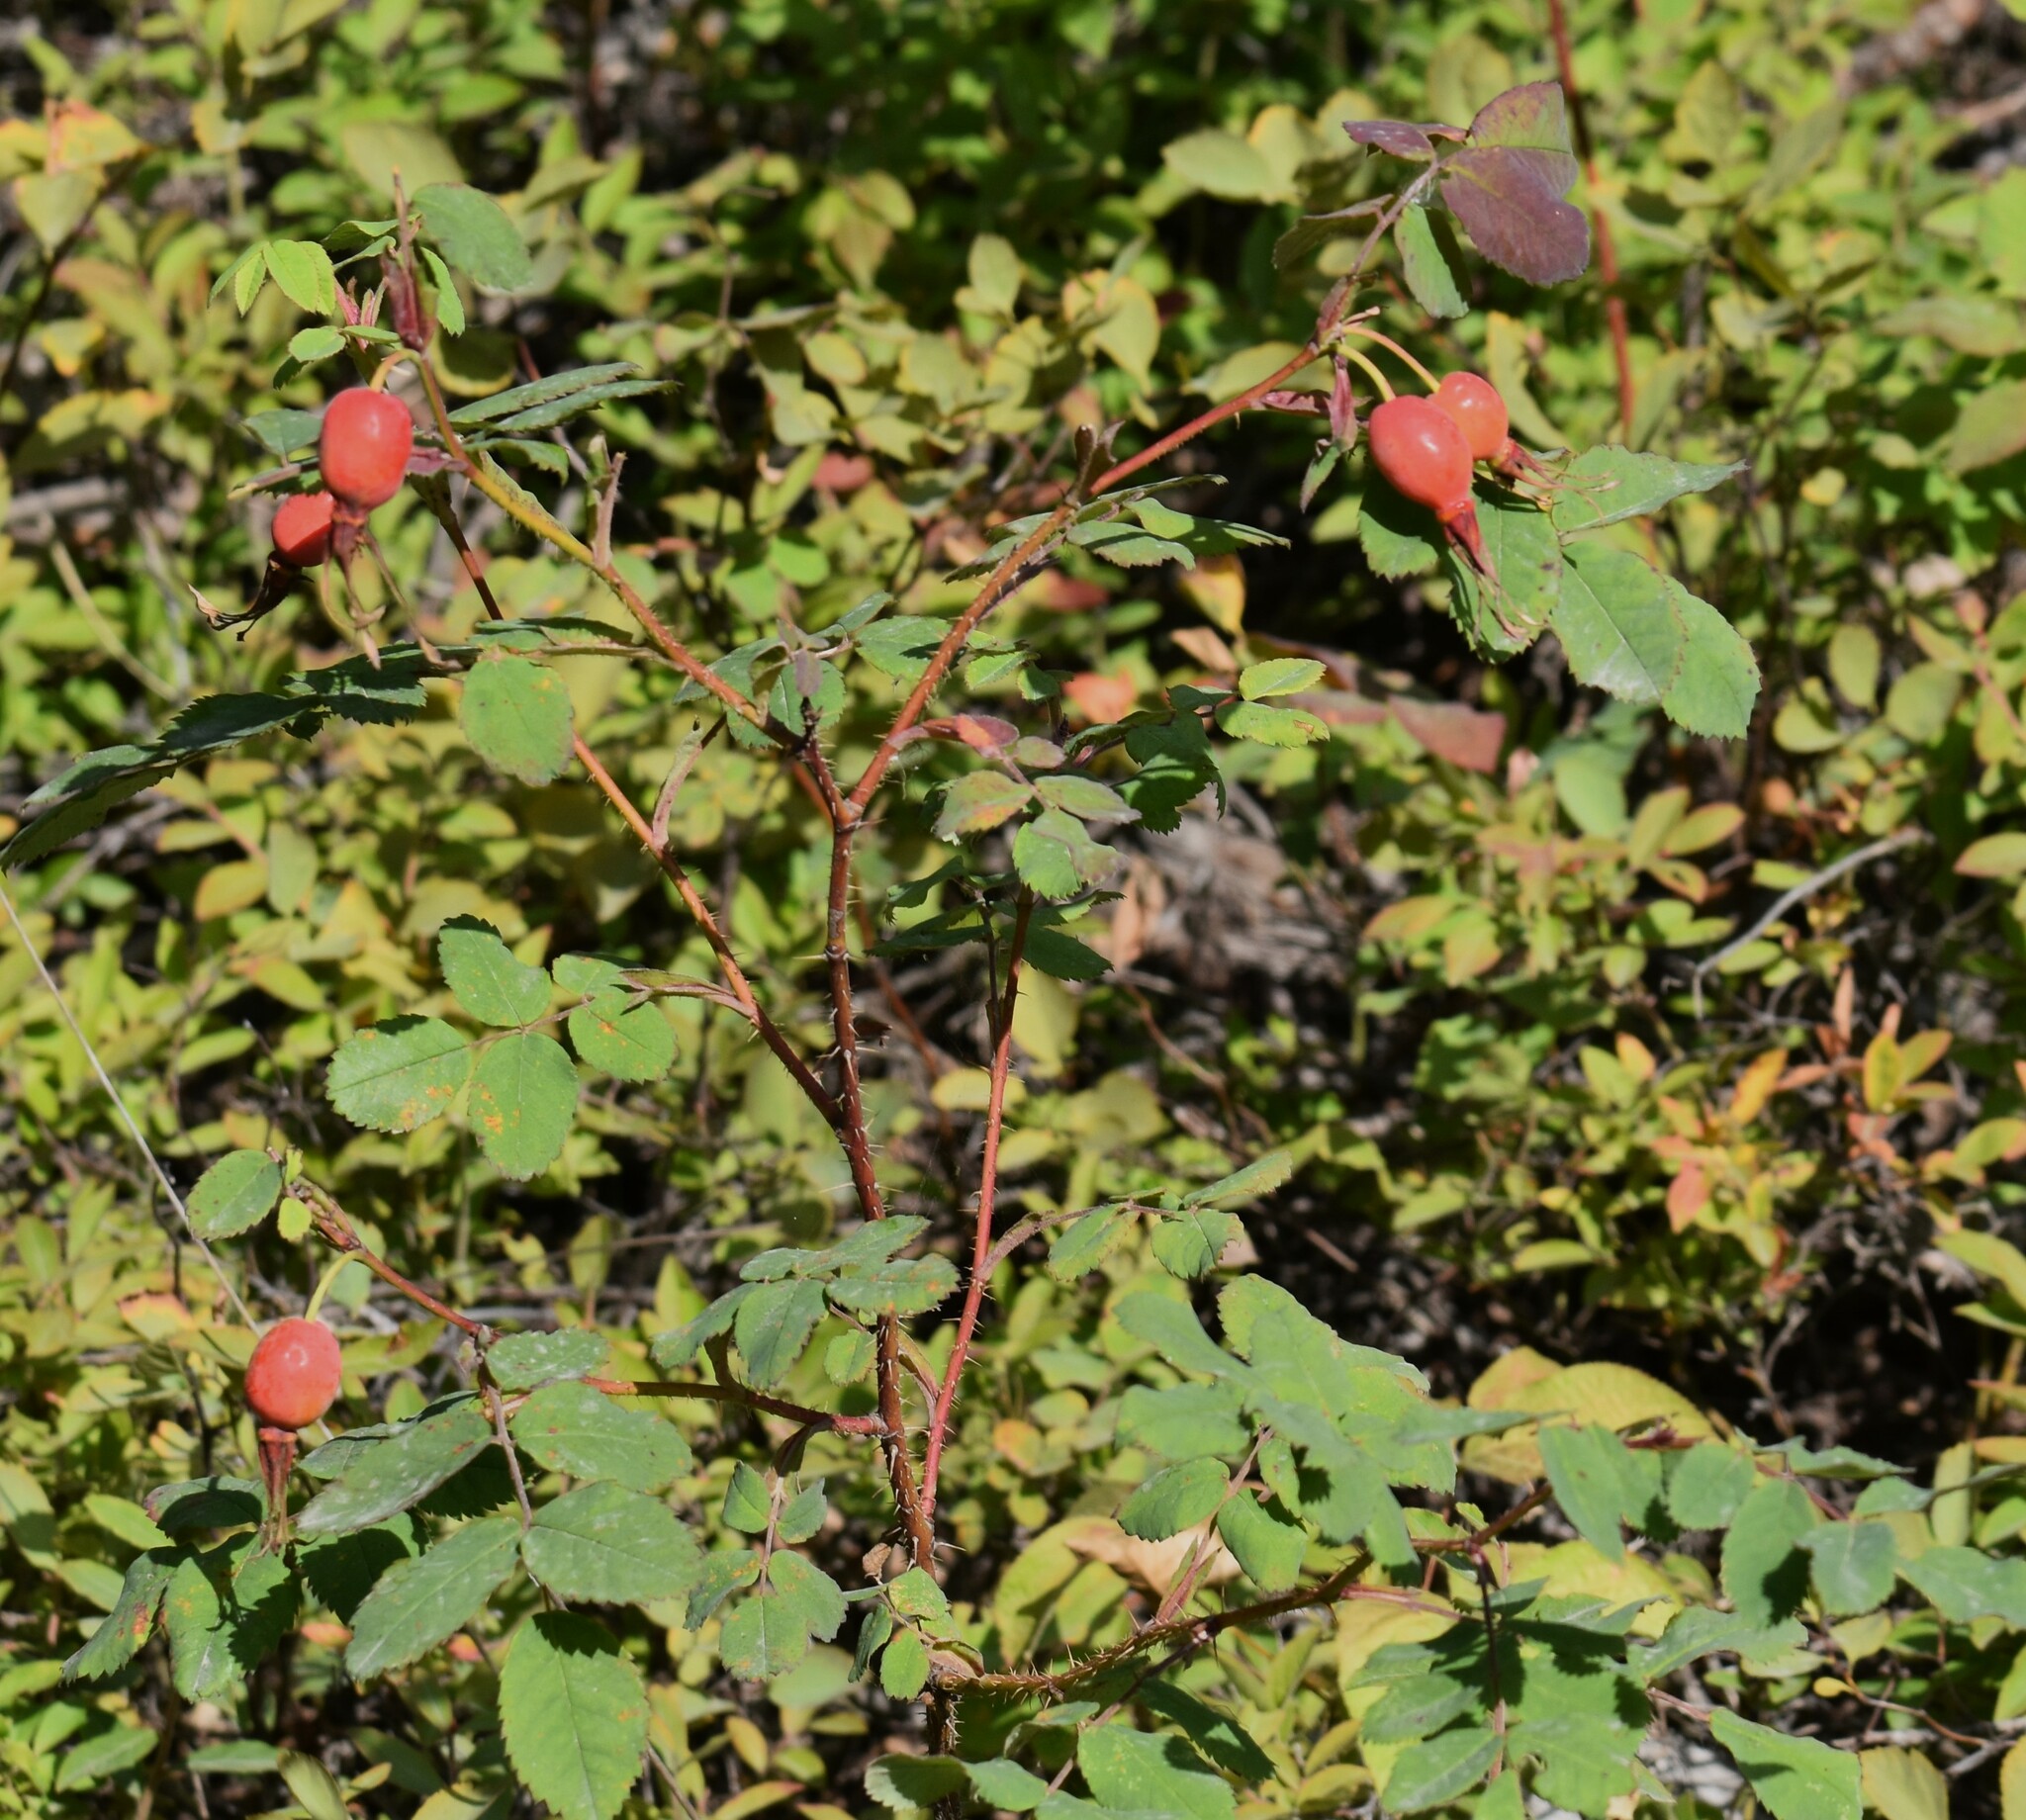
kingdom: Plantae
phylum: Tracheophyta
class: Magnoliopsida
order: Rosales
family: Rosaceae
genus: Rosa
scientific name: Rosa acicularis
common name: Prickly rose
